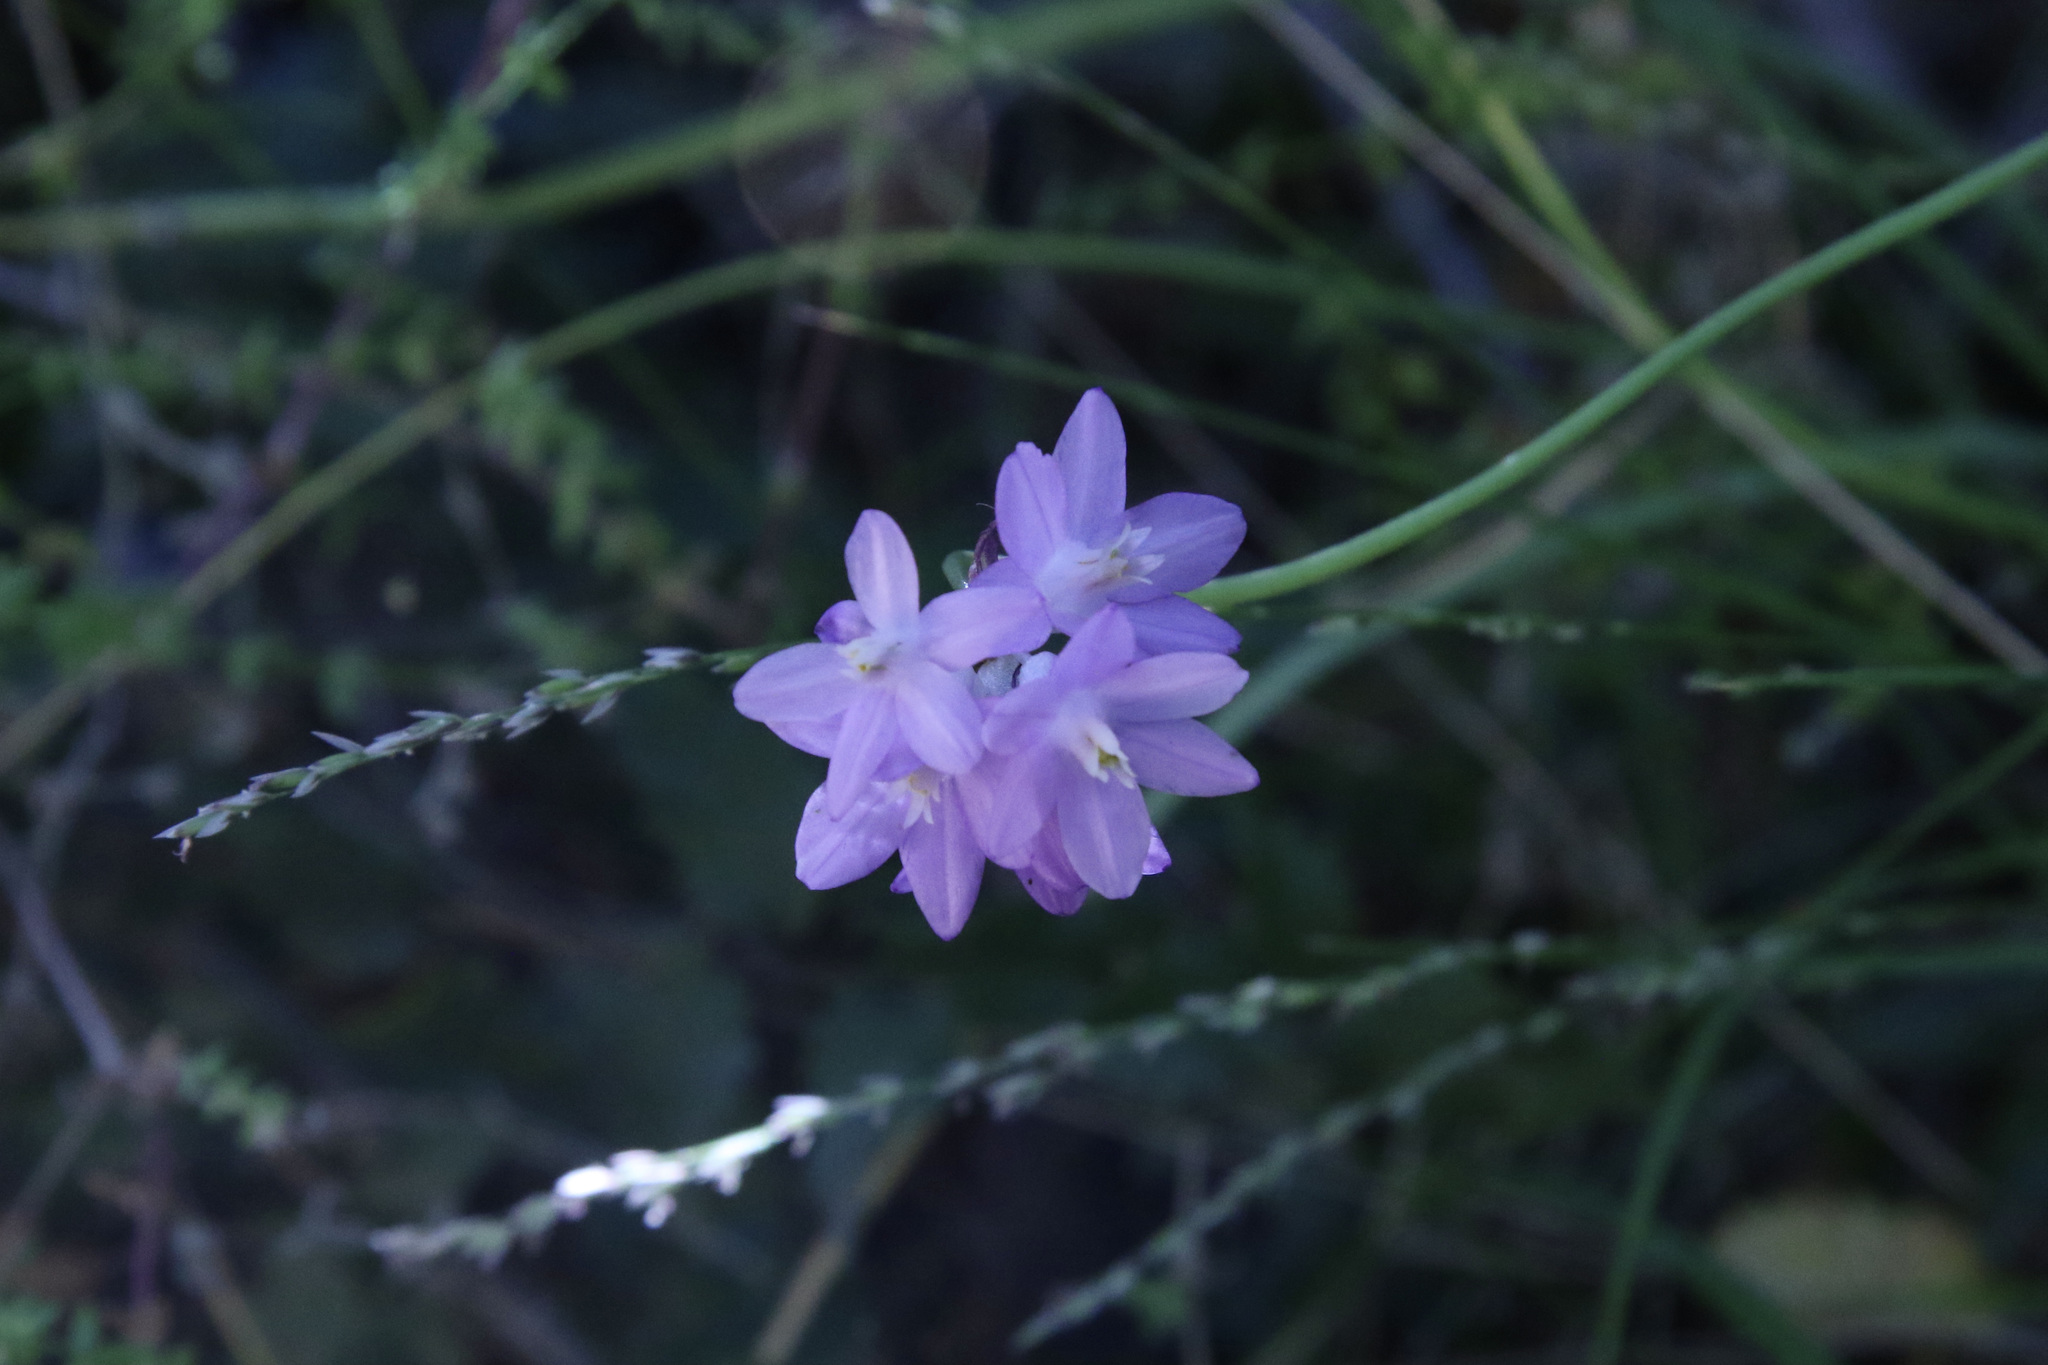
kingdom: Plantae
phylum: Tracheophyta
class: Liliopsida
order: Asparagales
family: Asparagaceae
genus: Dipterostemon
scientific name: Dipterostemon capitatus
